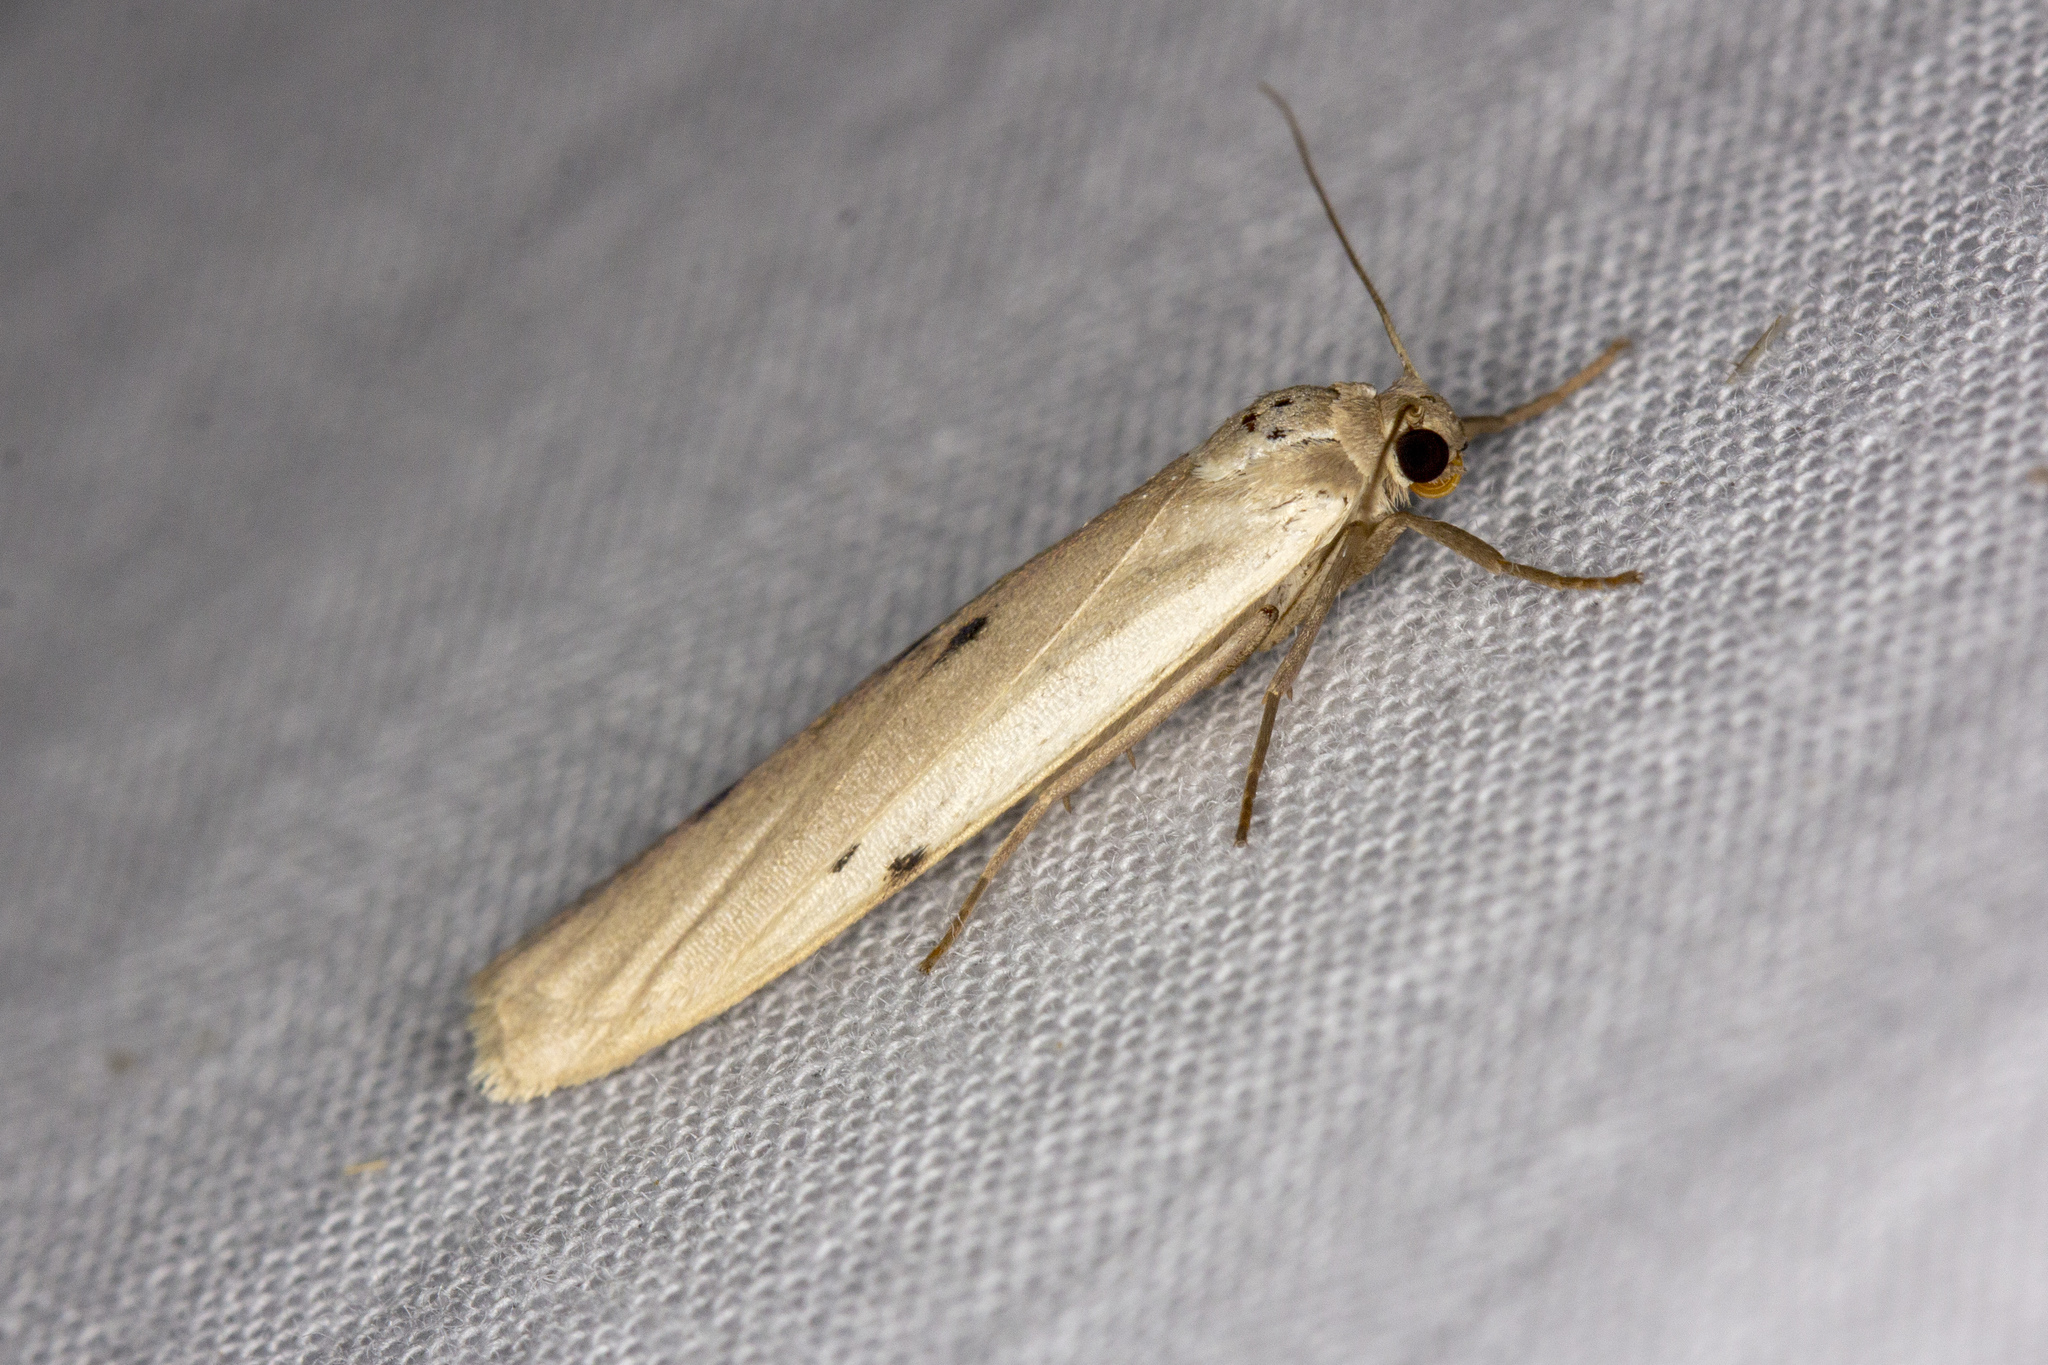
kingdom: Animalia
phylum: Arthropoda
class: Insecta
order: Lepidoptera
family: Erebidae
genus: Pelosia
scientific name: Pelosia muscerda
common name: Dotted footman
